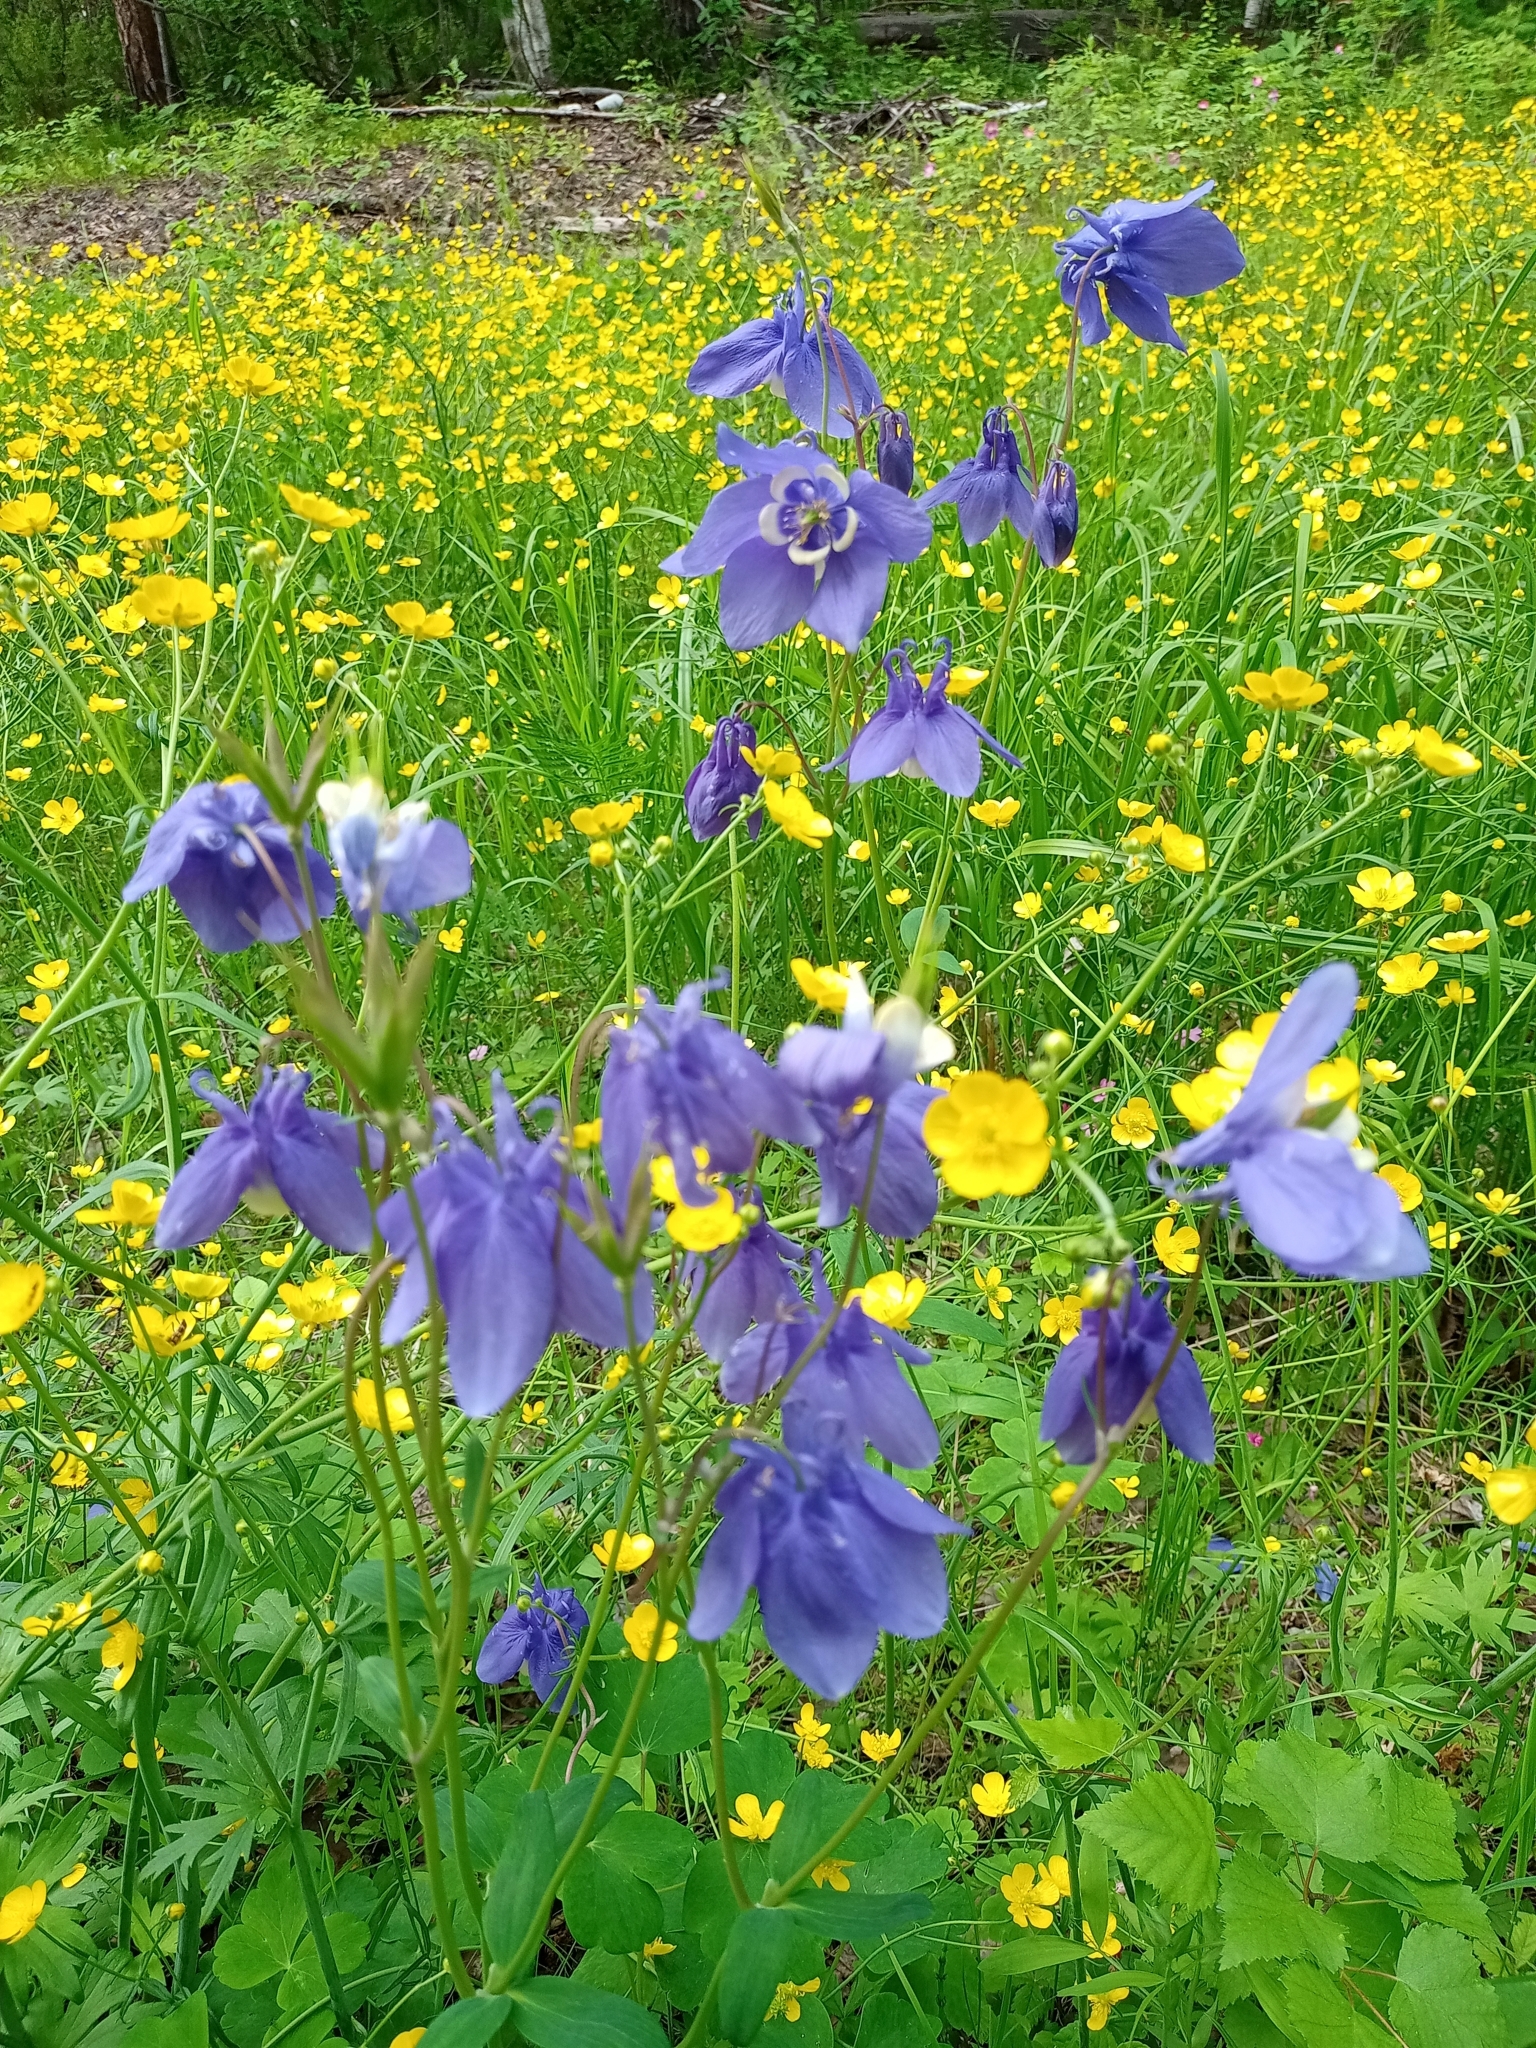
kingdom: Plantae
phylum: Tracheophyta
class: Magnoliopsida
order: Ranunculales
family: Ranunculaceae
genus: Aquilegia
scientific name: Aquilegia sibirica
